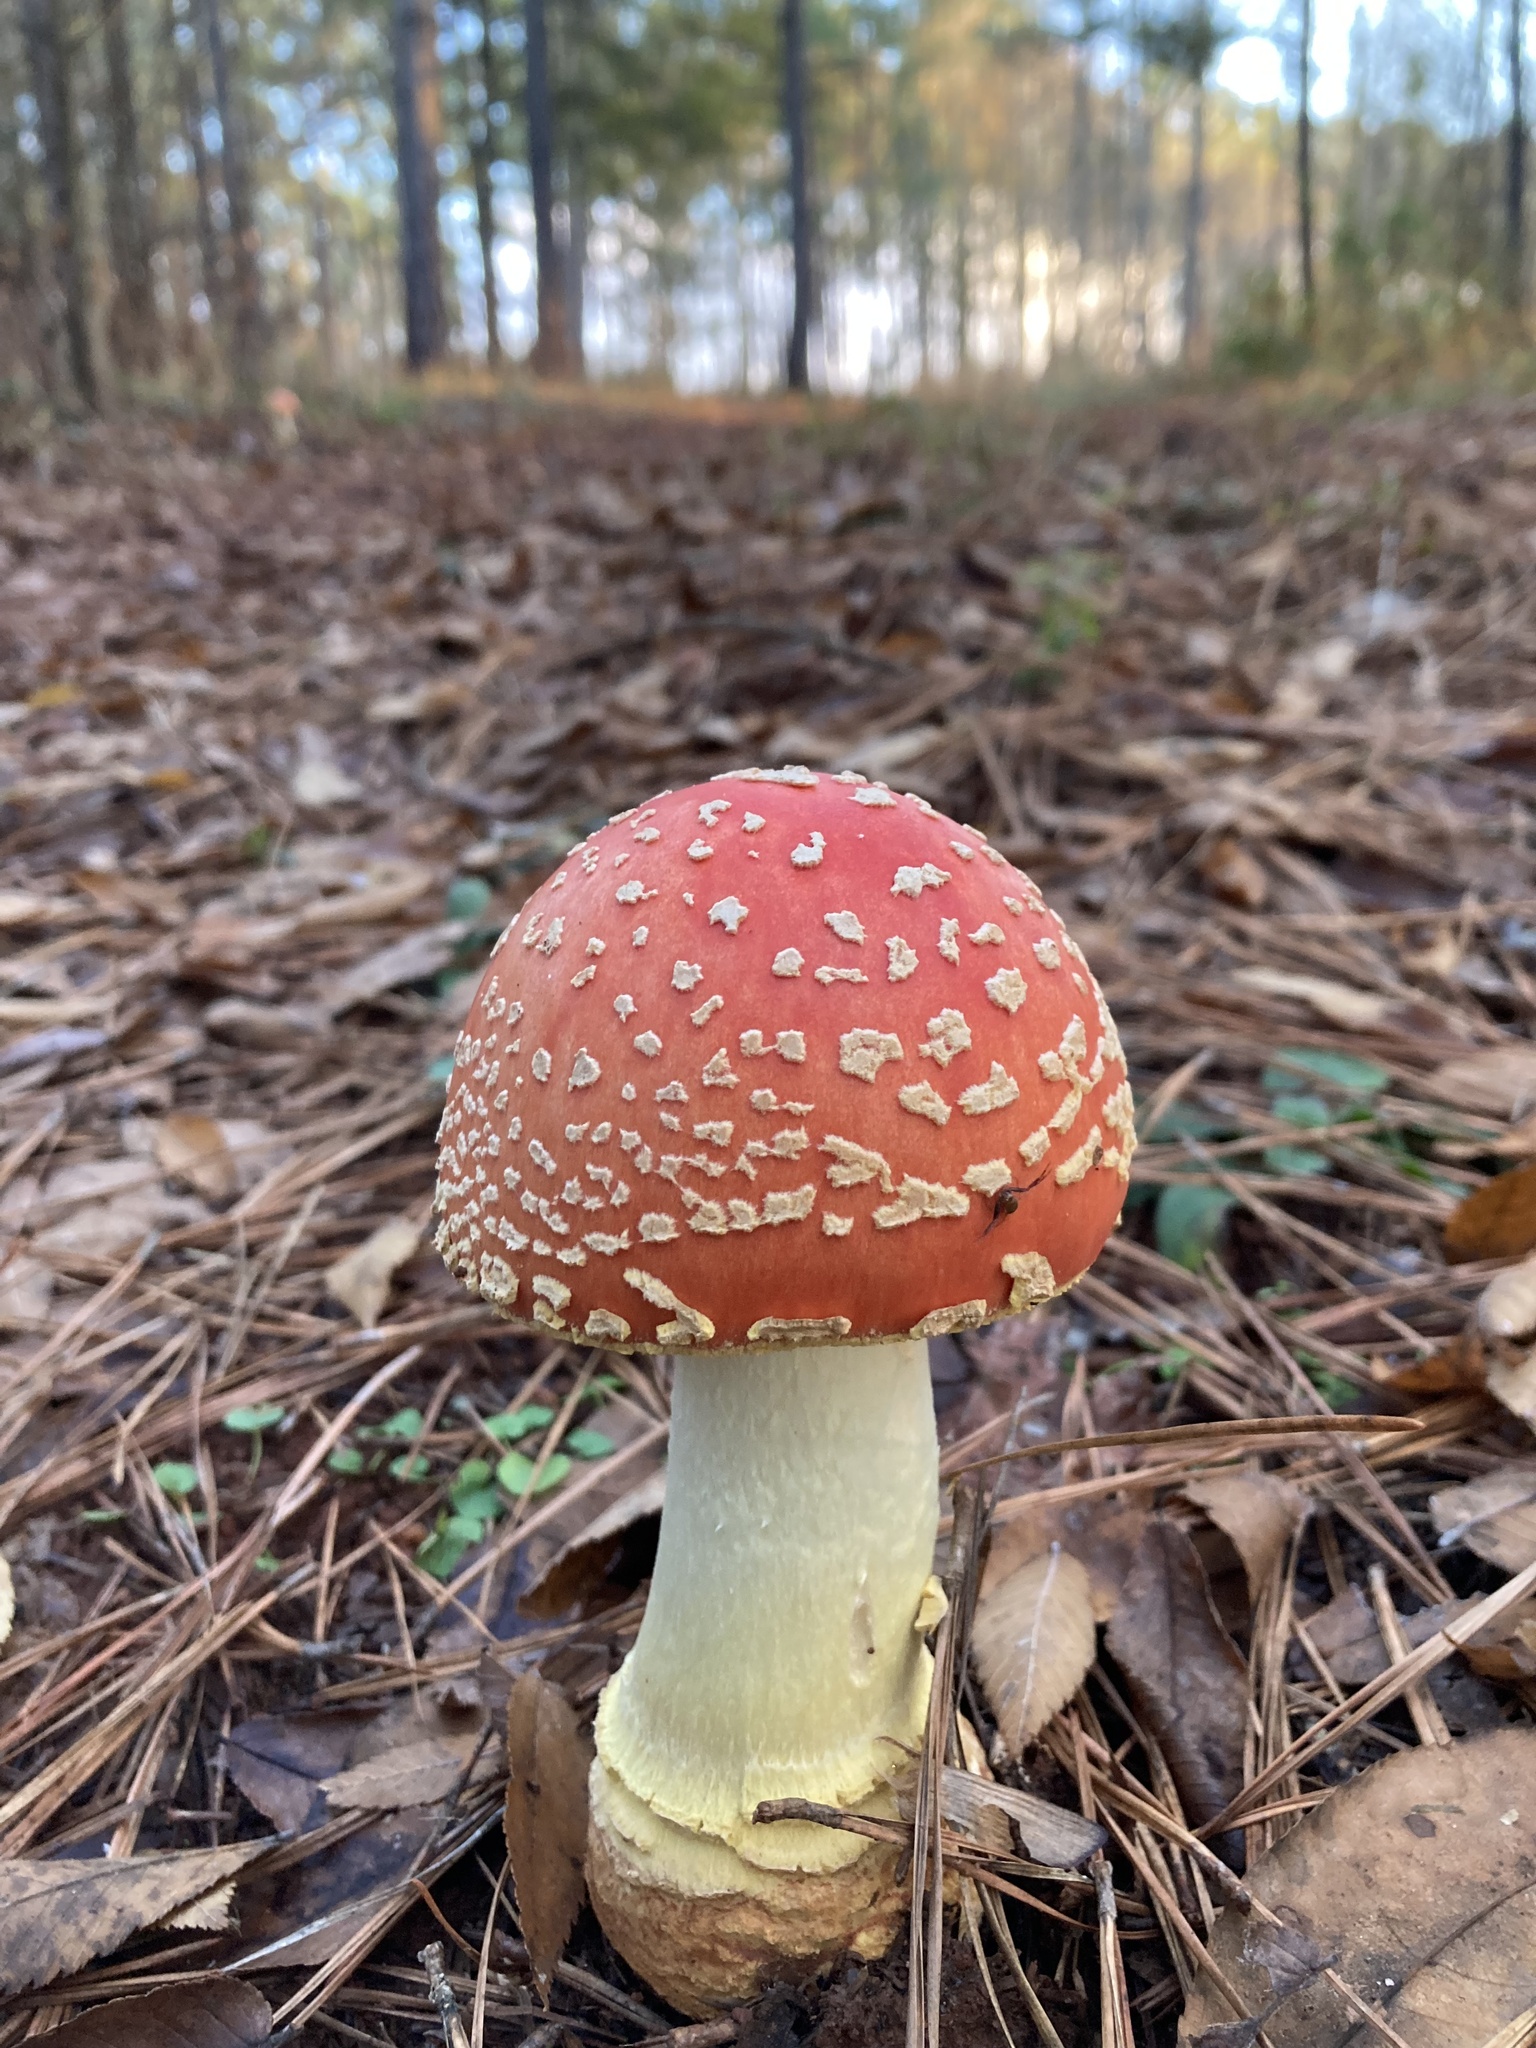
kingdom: Fungi
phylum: Basidiomycota
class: Agaricomycetes
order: Agaricales
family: Amanitaceae
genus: Amanita
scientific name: Amanita persicina
